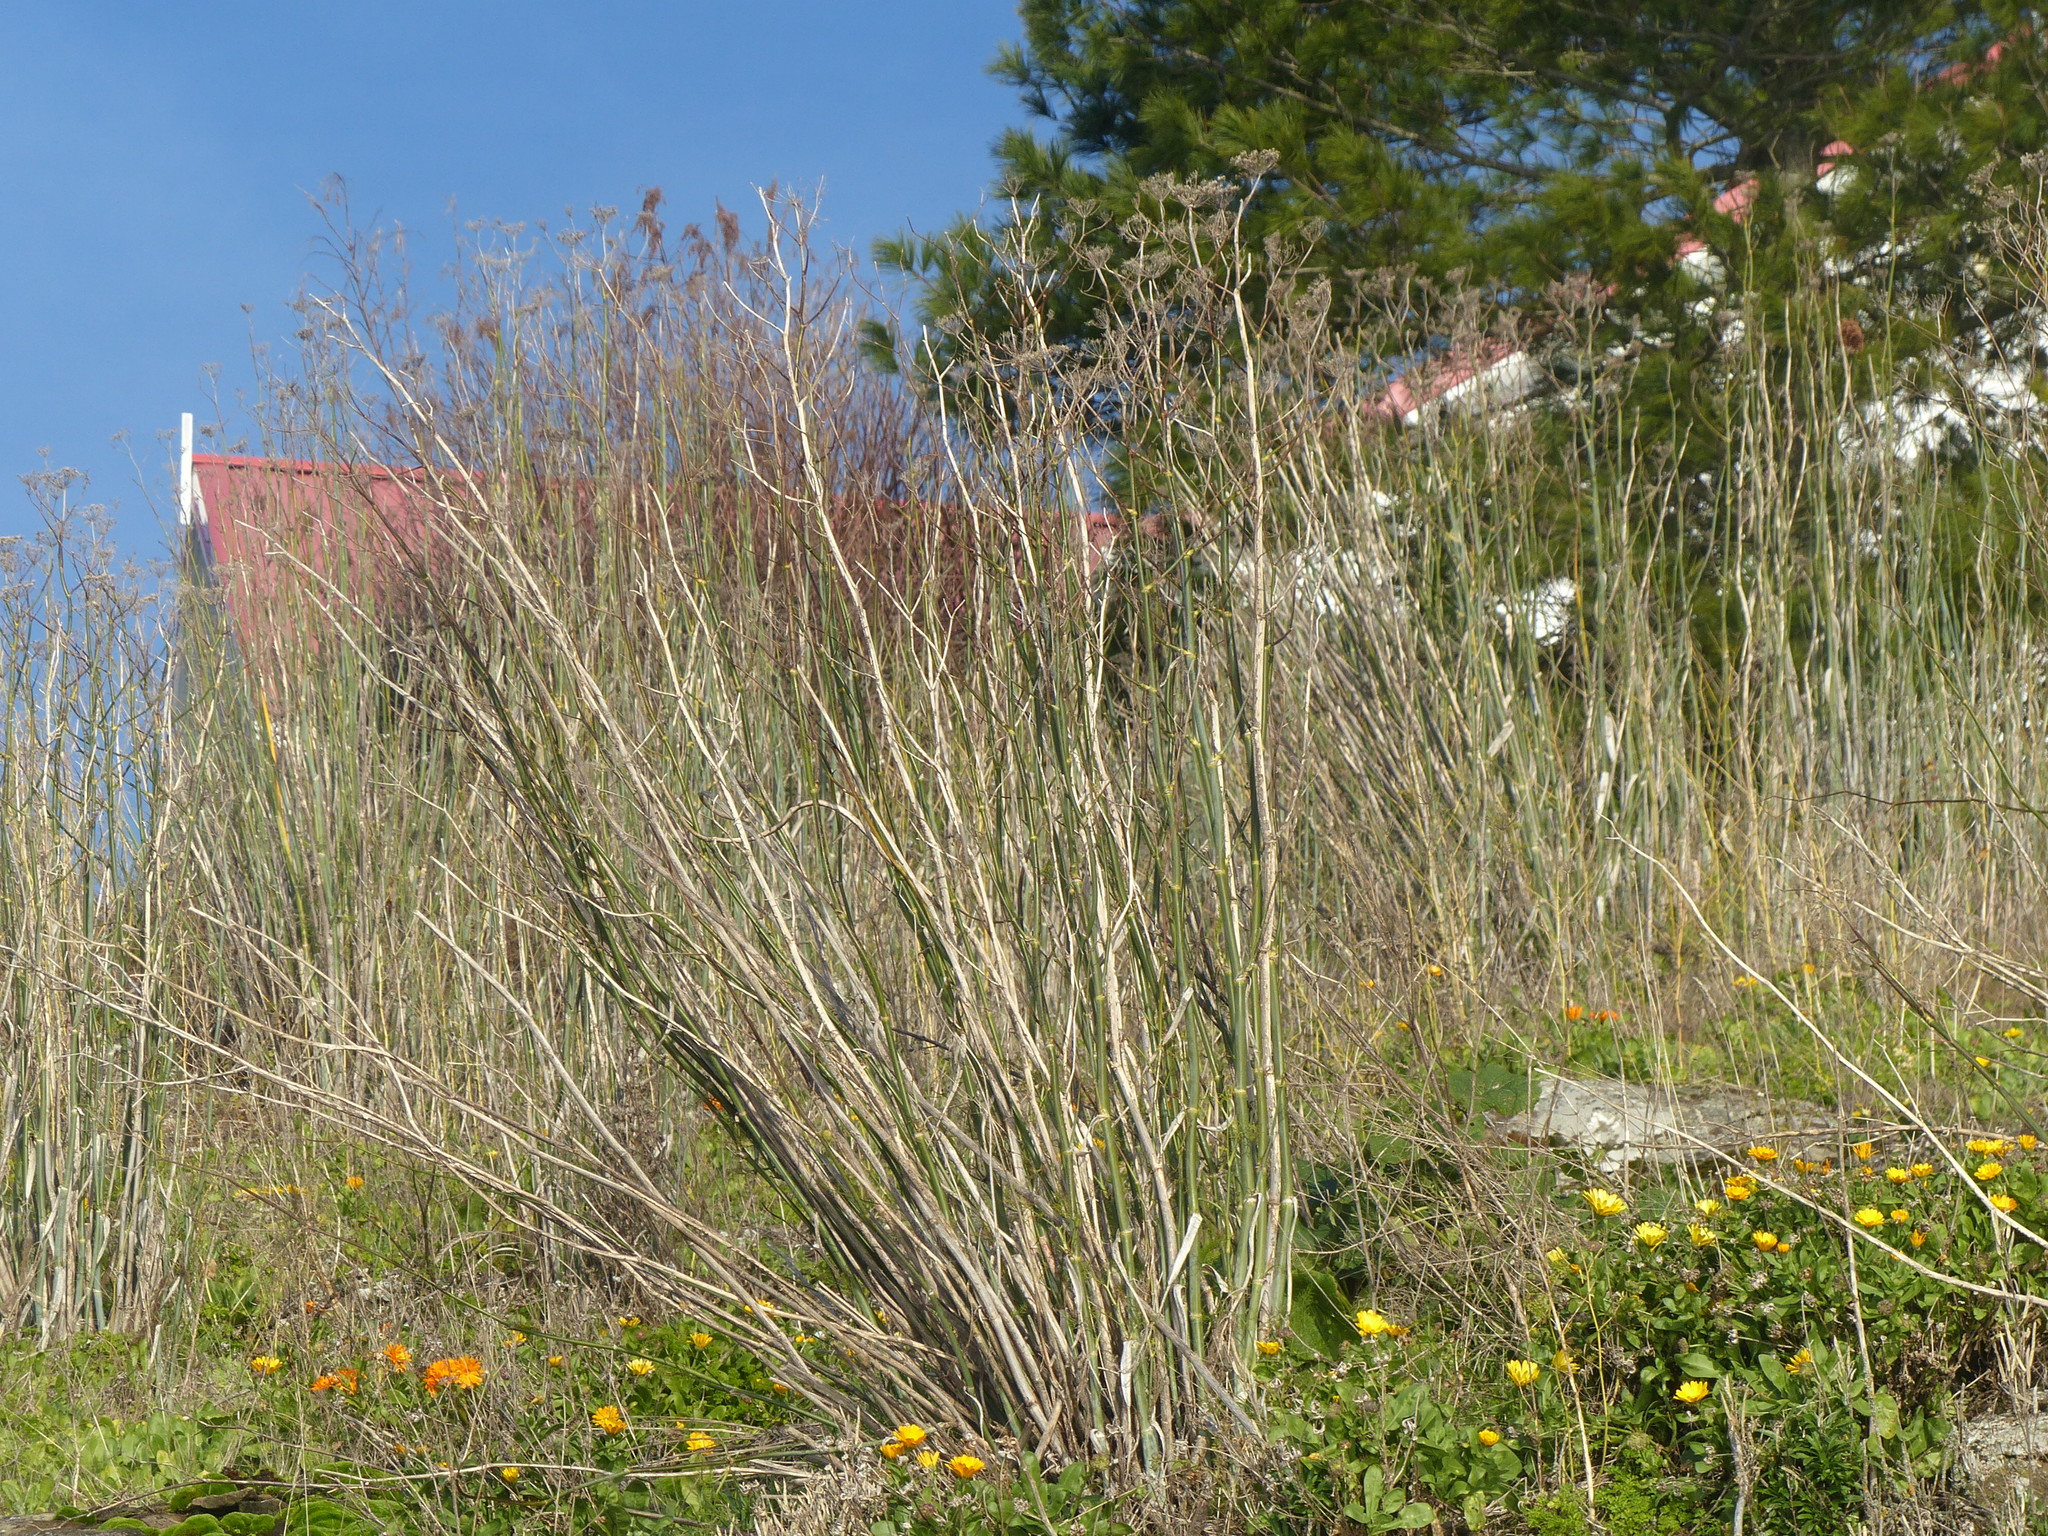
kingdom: Plantae
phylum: Tracheophyta
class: Magnoliopsida
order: Apiales
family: Apiaceae
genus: Foeniculum
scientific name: Foeniculum vulgare
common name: Fennel
